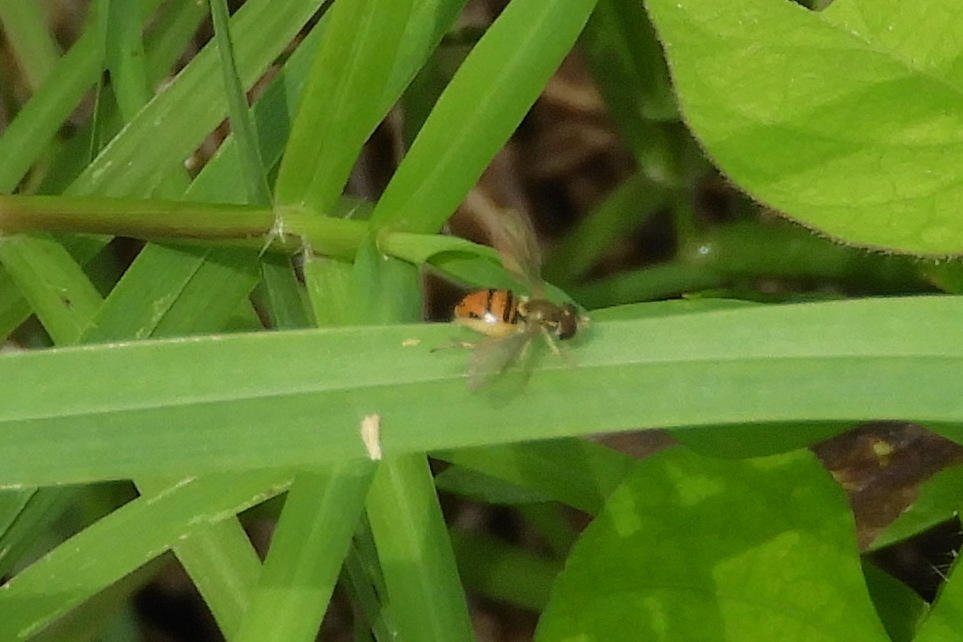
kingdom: Animalia
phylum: Arthropoda
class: Insecta
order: Diptera
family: Syrphidae
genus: Toxomerus
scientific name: Toxomerus marginatus
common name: Syrphid fly
